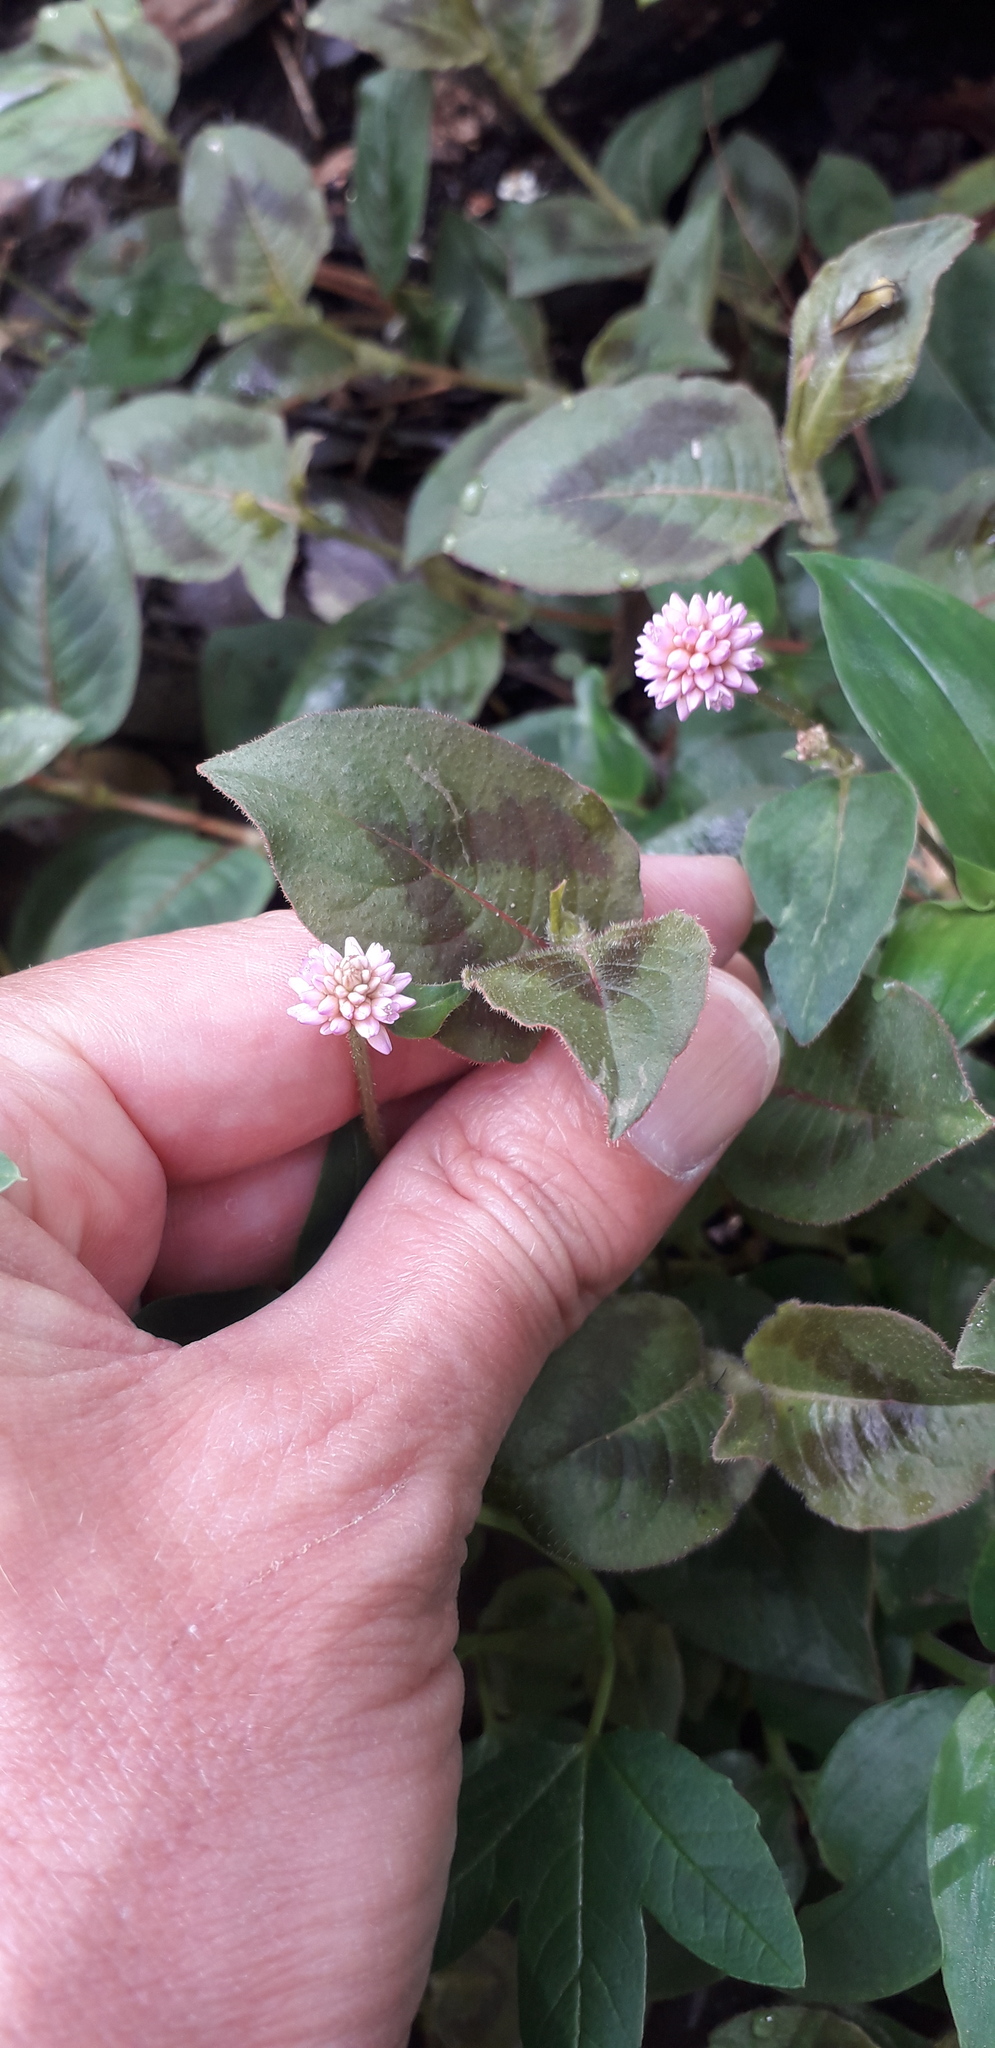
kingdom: Plantae
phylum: Tracheophyta
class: Magnoliopsida
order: Caryophyllales
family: Polygonaceae
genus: Persicaria
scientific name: Persicaria capitata
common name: Pinkhead smartweed
